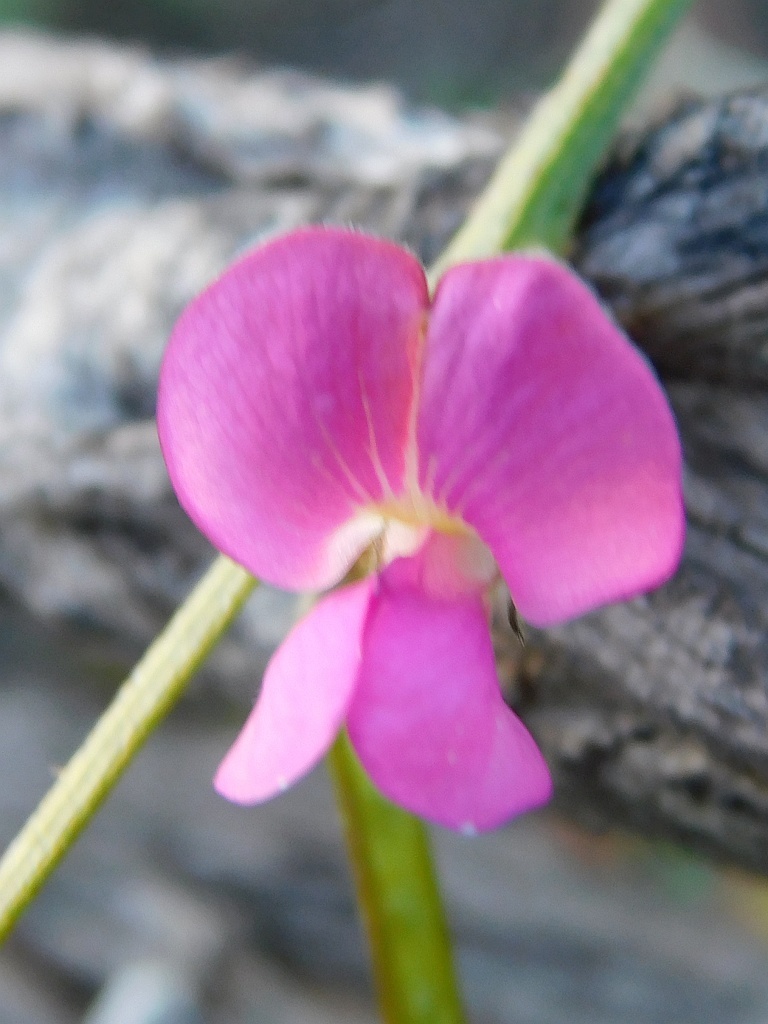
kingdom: Plantae
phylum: Tracheophyta
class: Magnoliopsida
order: Fabales
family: Fabaceae
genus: Tephrosia
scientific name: Tephrosia capensis
